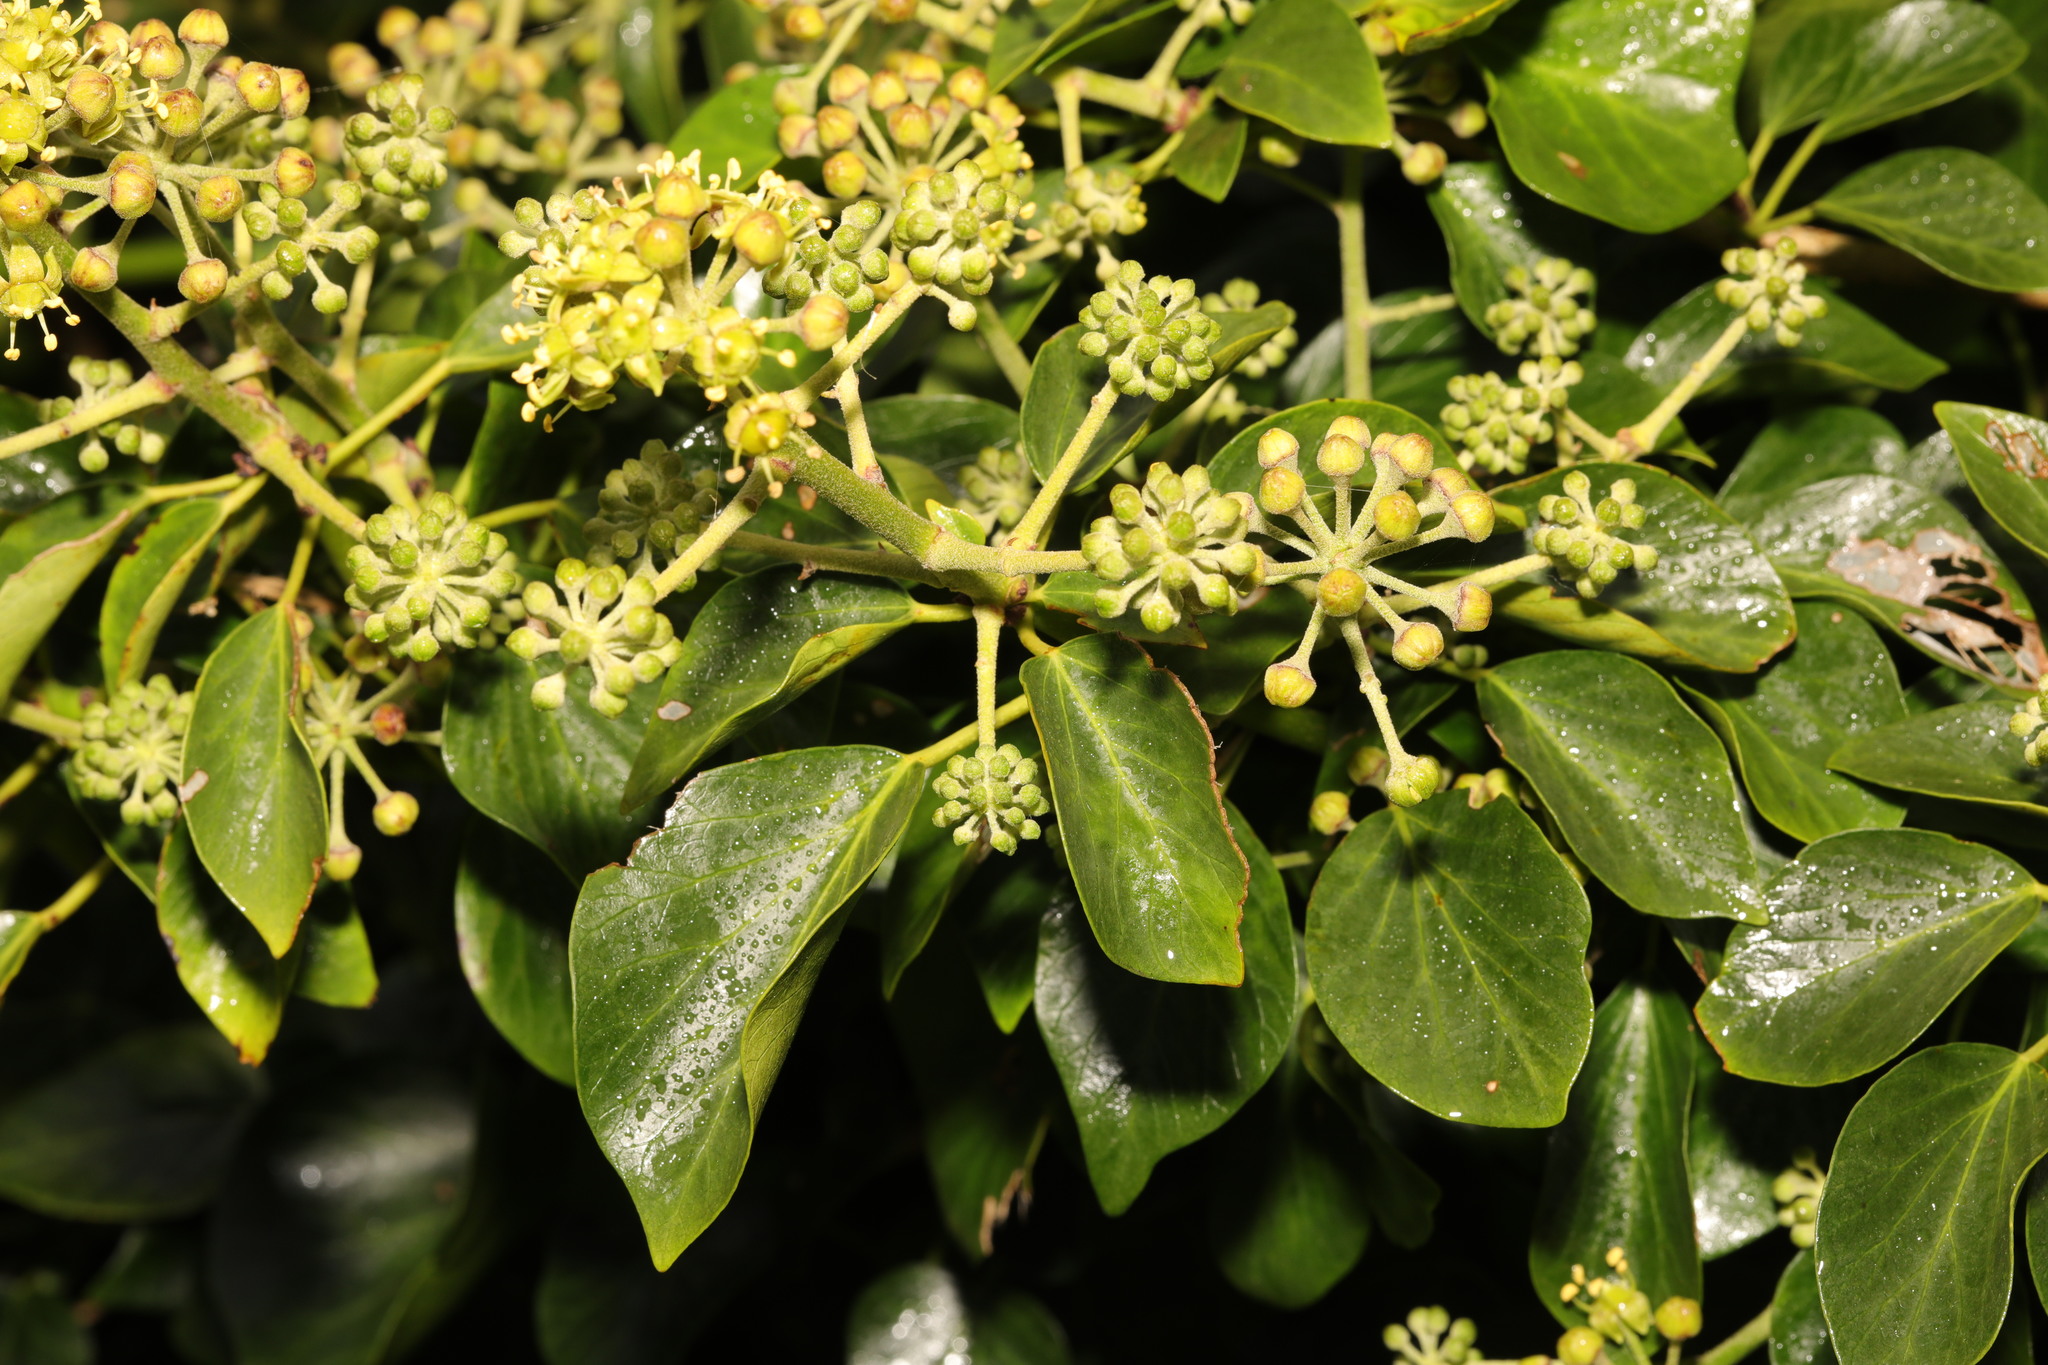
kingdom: Plantae
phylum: Tracheophyta
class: Magnoliopsida
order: Apiales
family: Araliaceae
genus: Hedera
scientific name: Hedera helix
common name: Ivy
